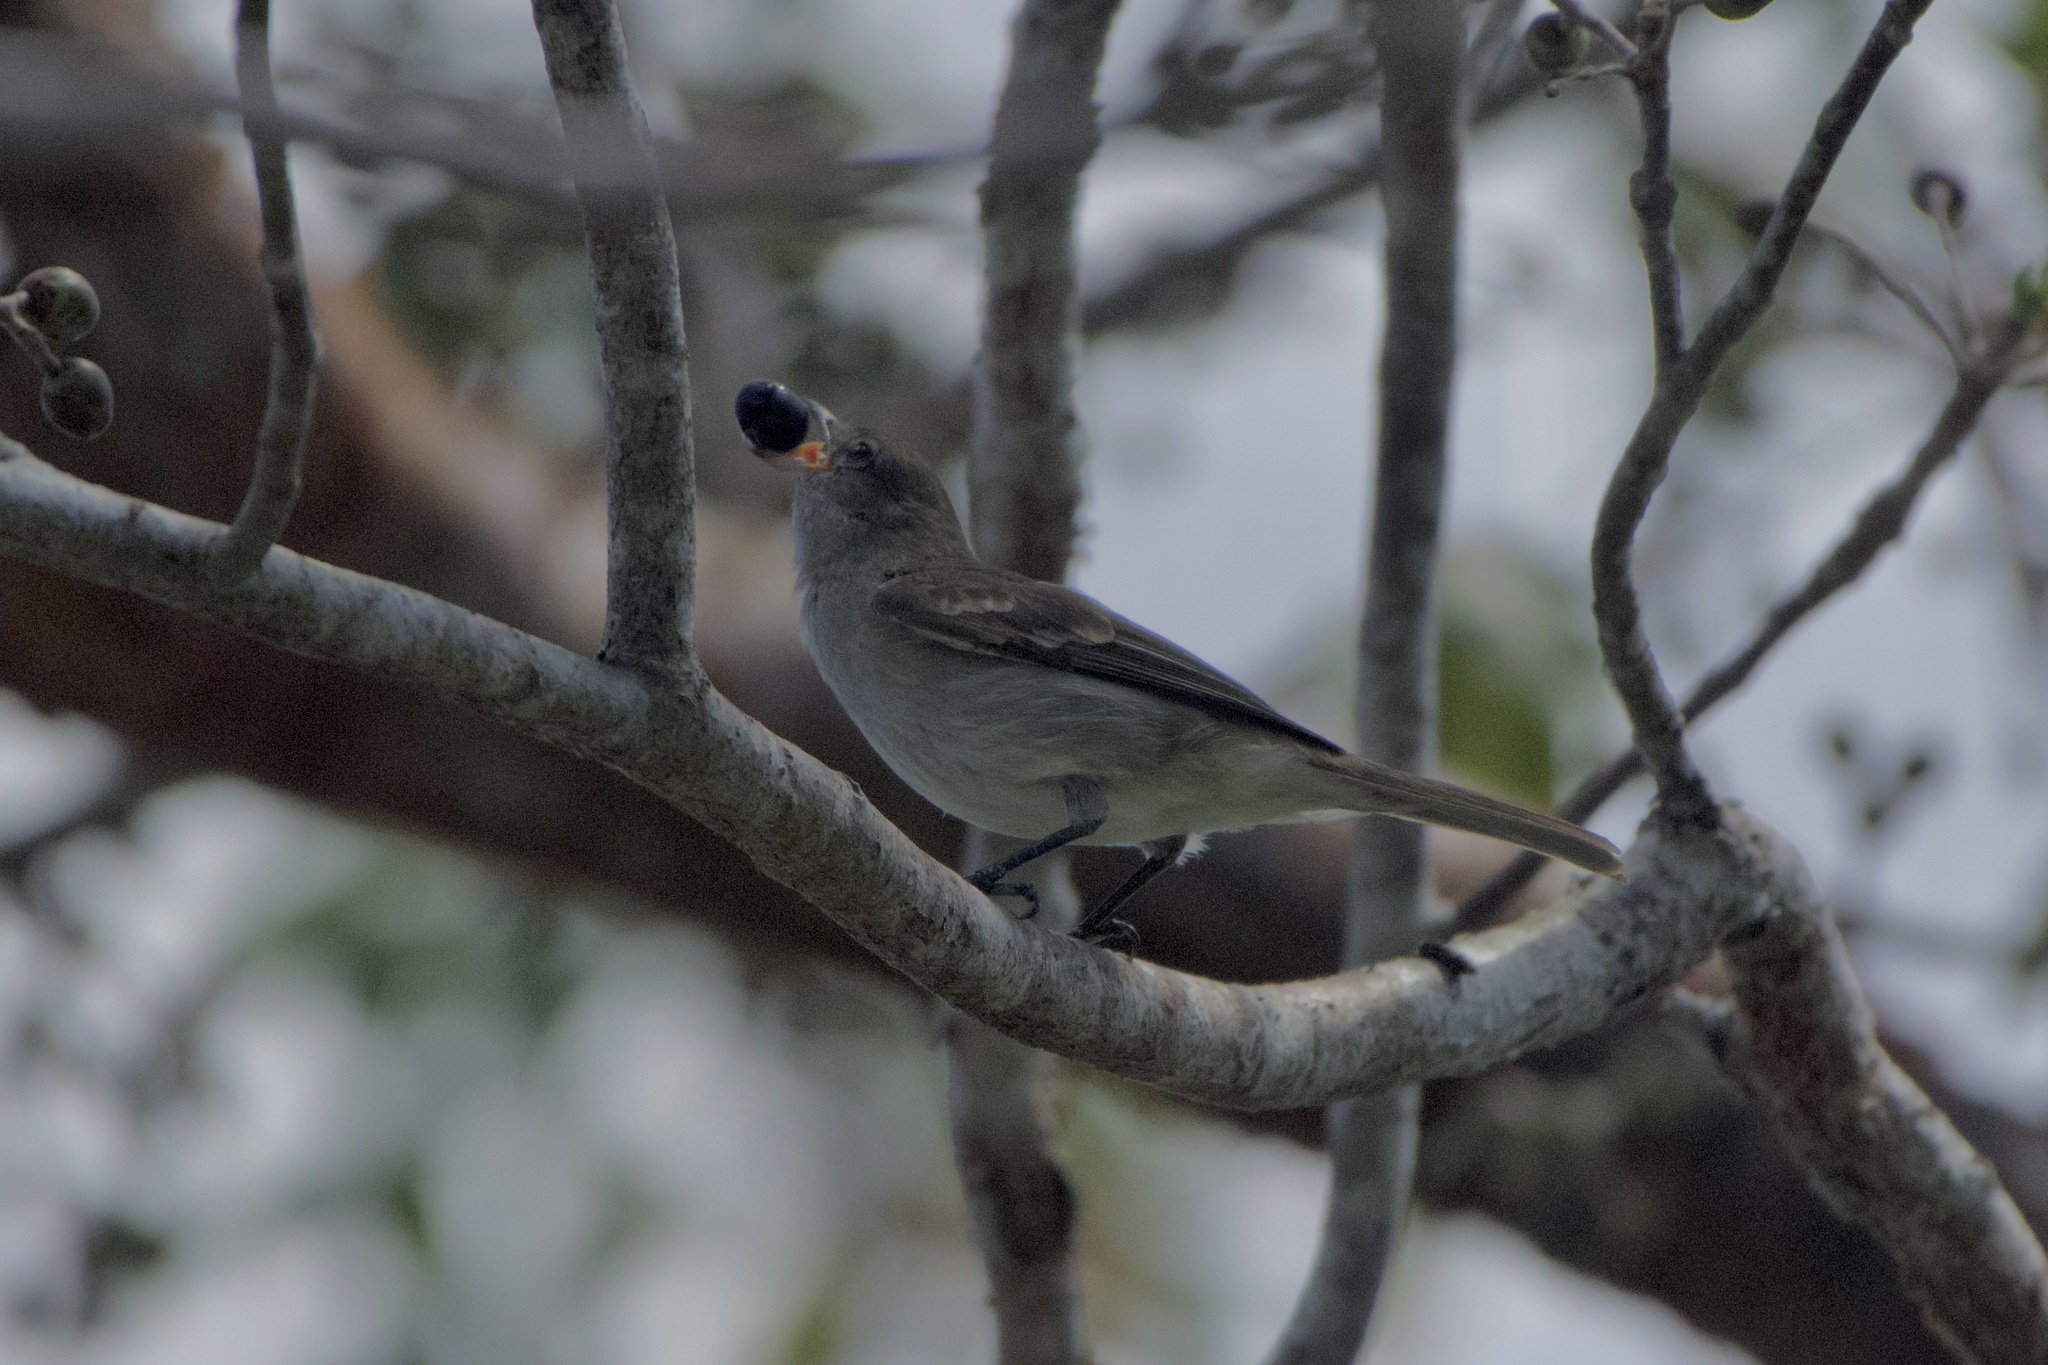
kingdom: Animalia
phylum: Chordata
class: Aves
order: Passeriformes
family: Tyrannidae
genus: Elaenia
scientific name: Elaenia martinica
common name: Caribbean elaenia
